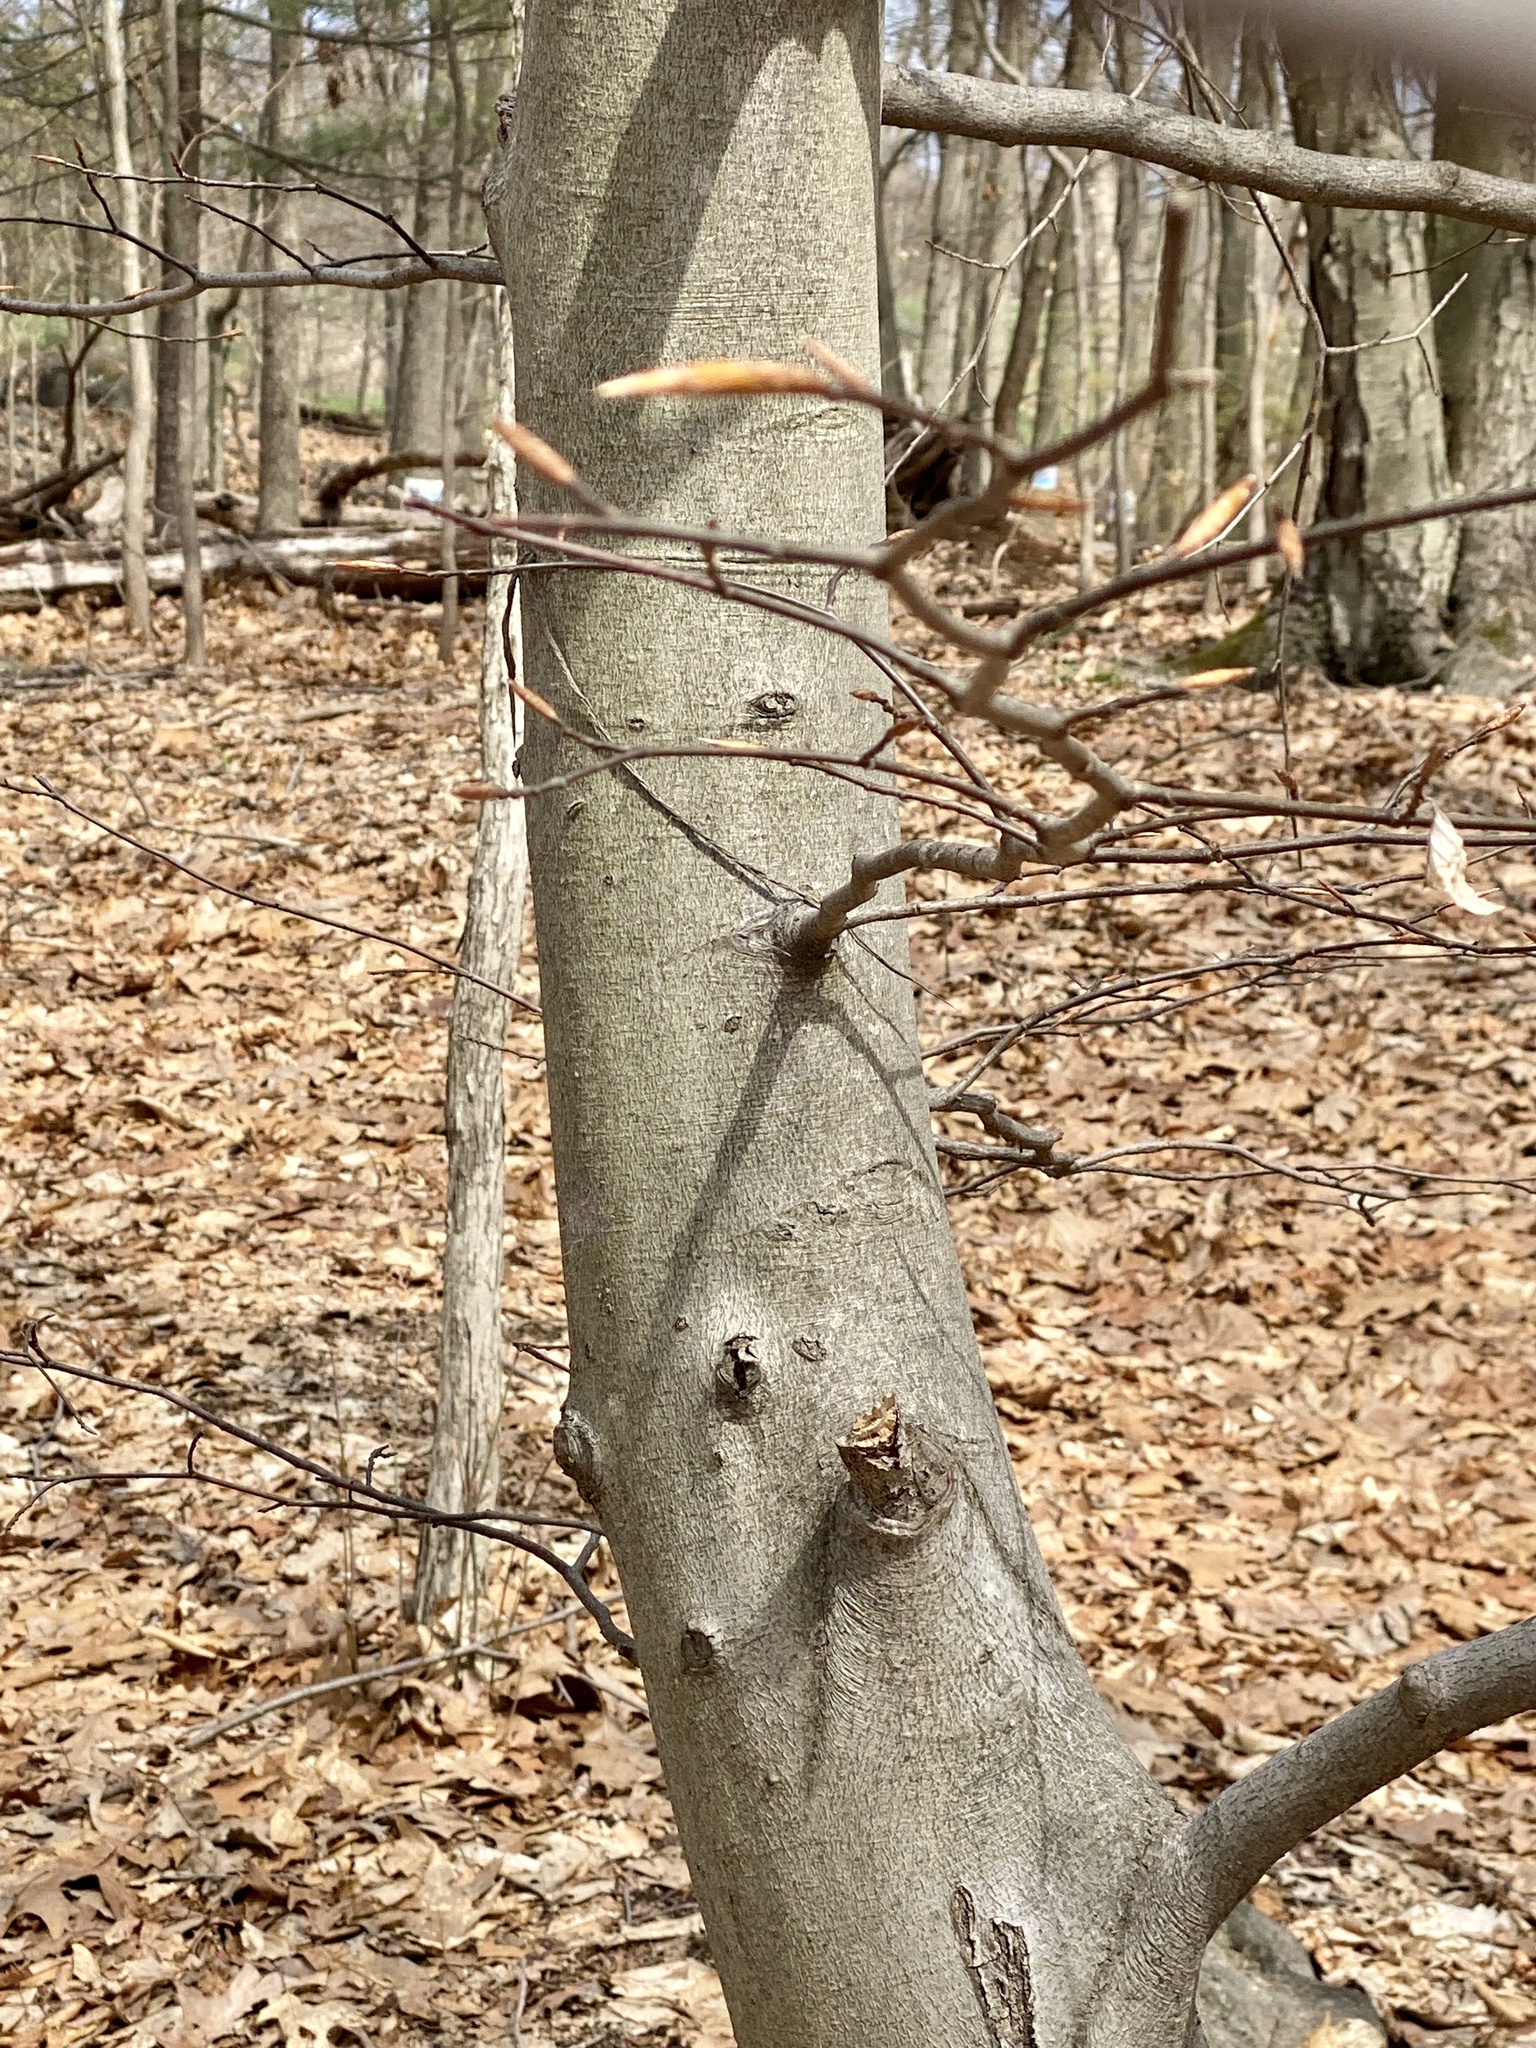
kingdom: Plantae
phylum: Tracheophyta
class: Magnoliopsida
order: Fagales
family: Fagaceae
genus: Fagus
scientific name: Fagus grandifolia
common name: American beech
